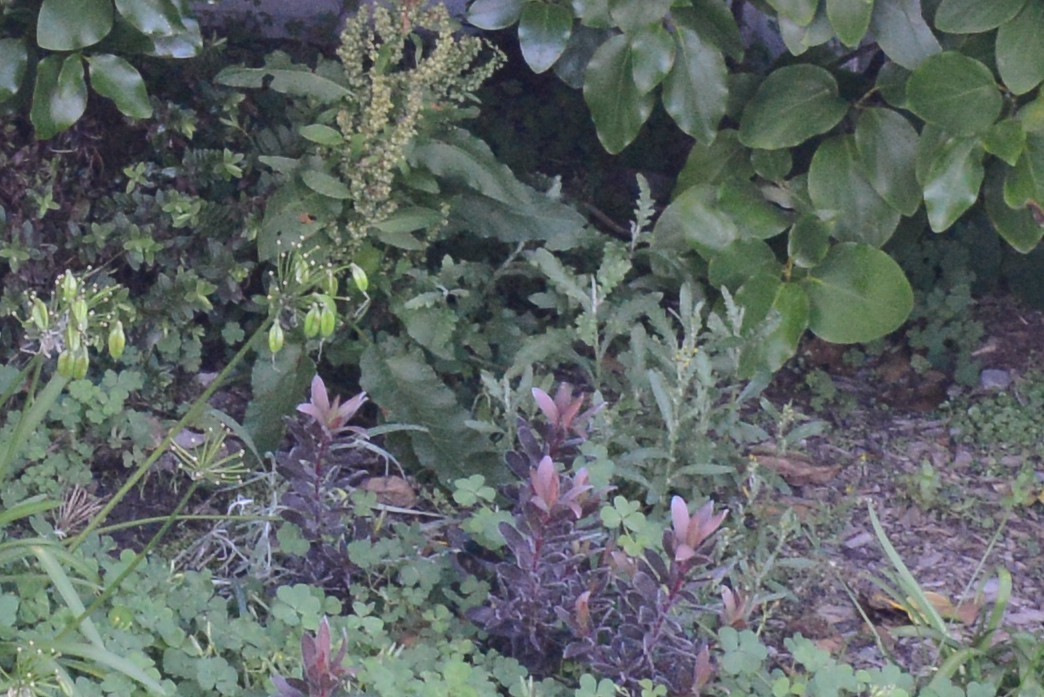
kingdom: Plantae
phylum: Tracheophyta
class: Magnoliopsida
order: Asterales
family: Asteraceae
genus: Senecio
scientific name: Senecio glomeratus
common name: Cutleaf burnweed
